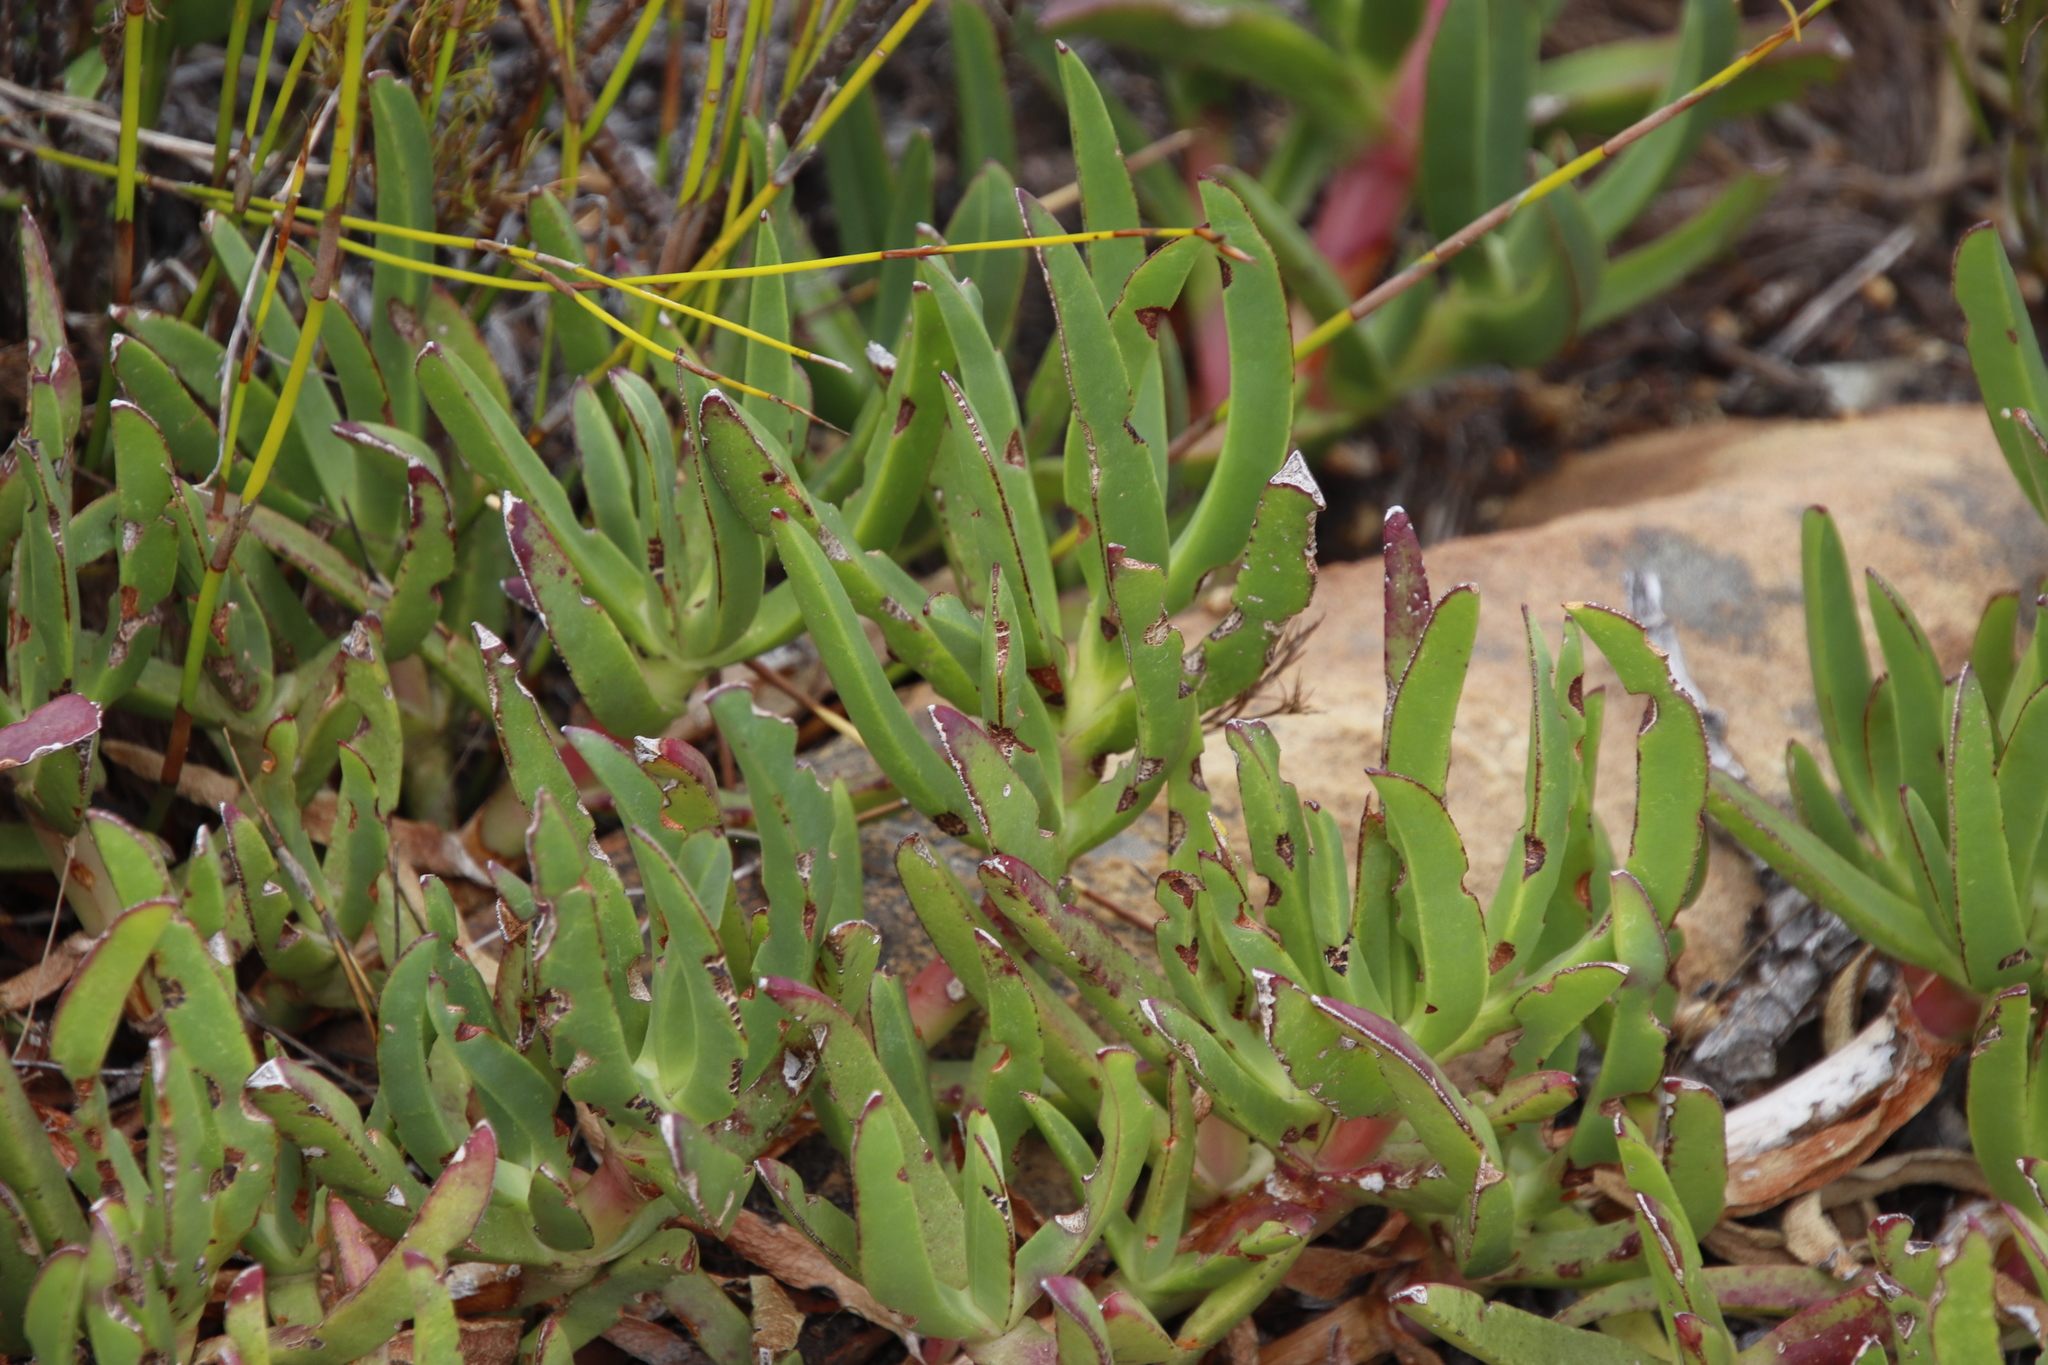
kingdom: Plantae
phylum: Tracheophyta
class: Magnoliopsida
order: Caryophyllales
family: Aizoaceae
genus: Carpobrotus
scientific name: Carpobrotus edulis
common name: Hottentot-fig
